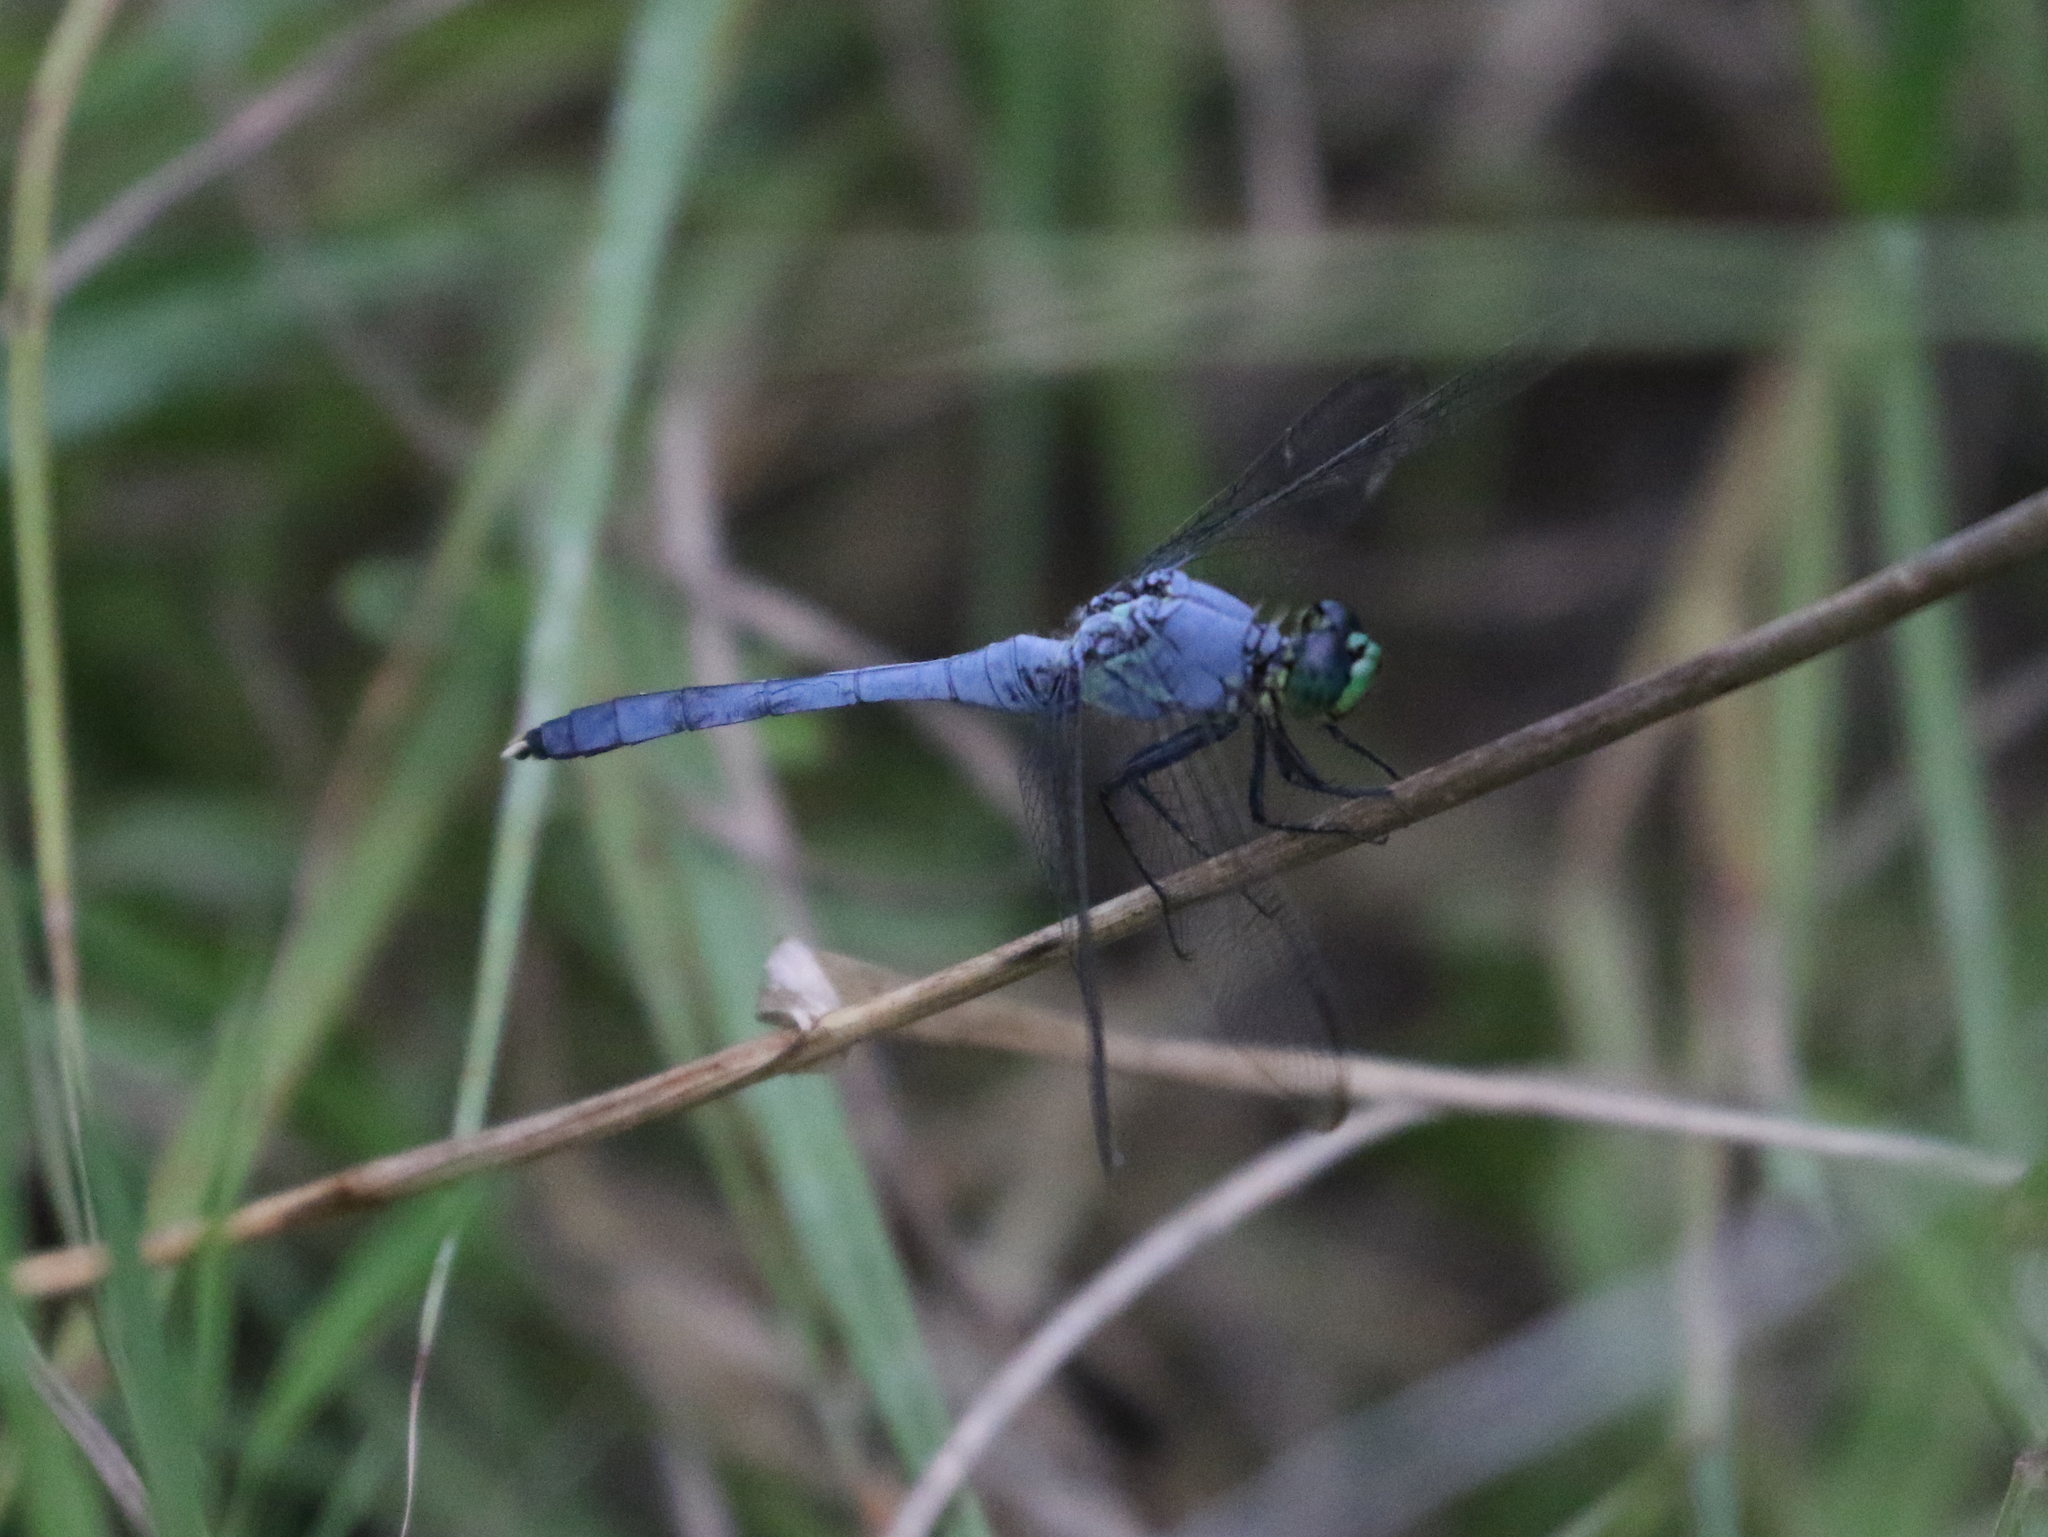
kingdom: Animalia
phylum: Arthropoda
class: Insecta
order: Odonata
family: Libellulidae
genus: Erythemis
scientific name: Erythemis simplicicollis
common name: Eastern pondhawk
